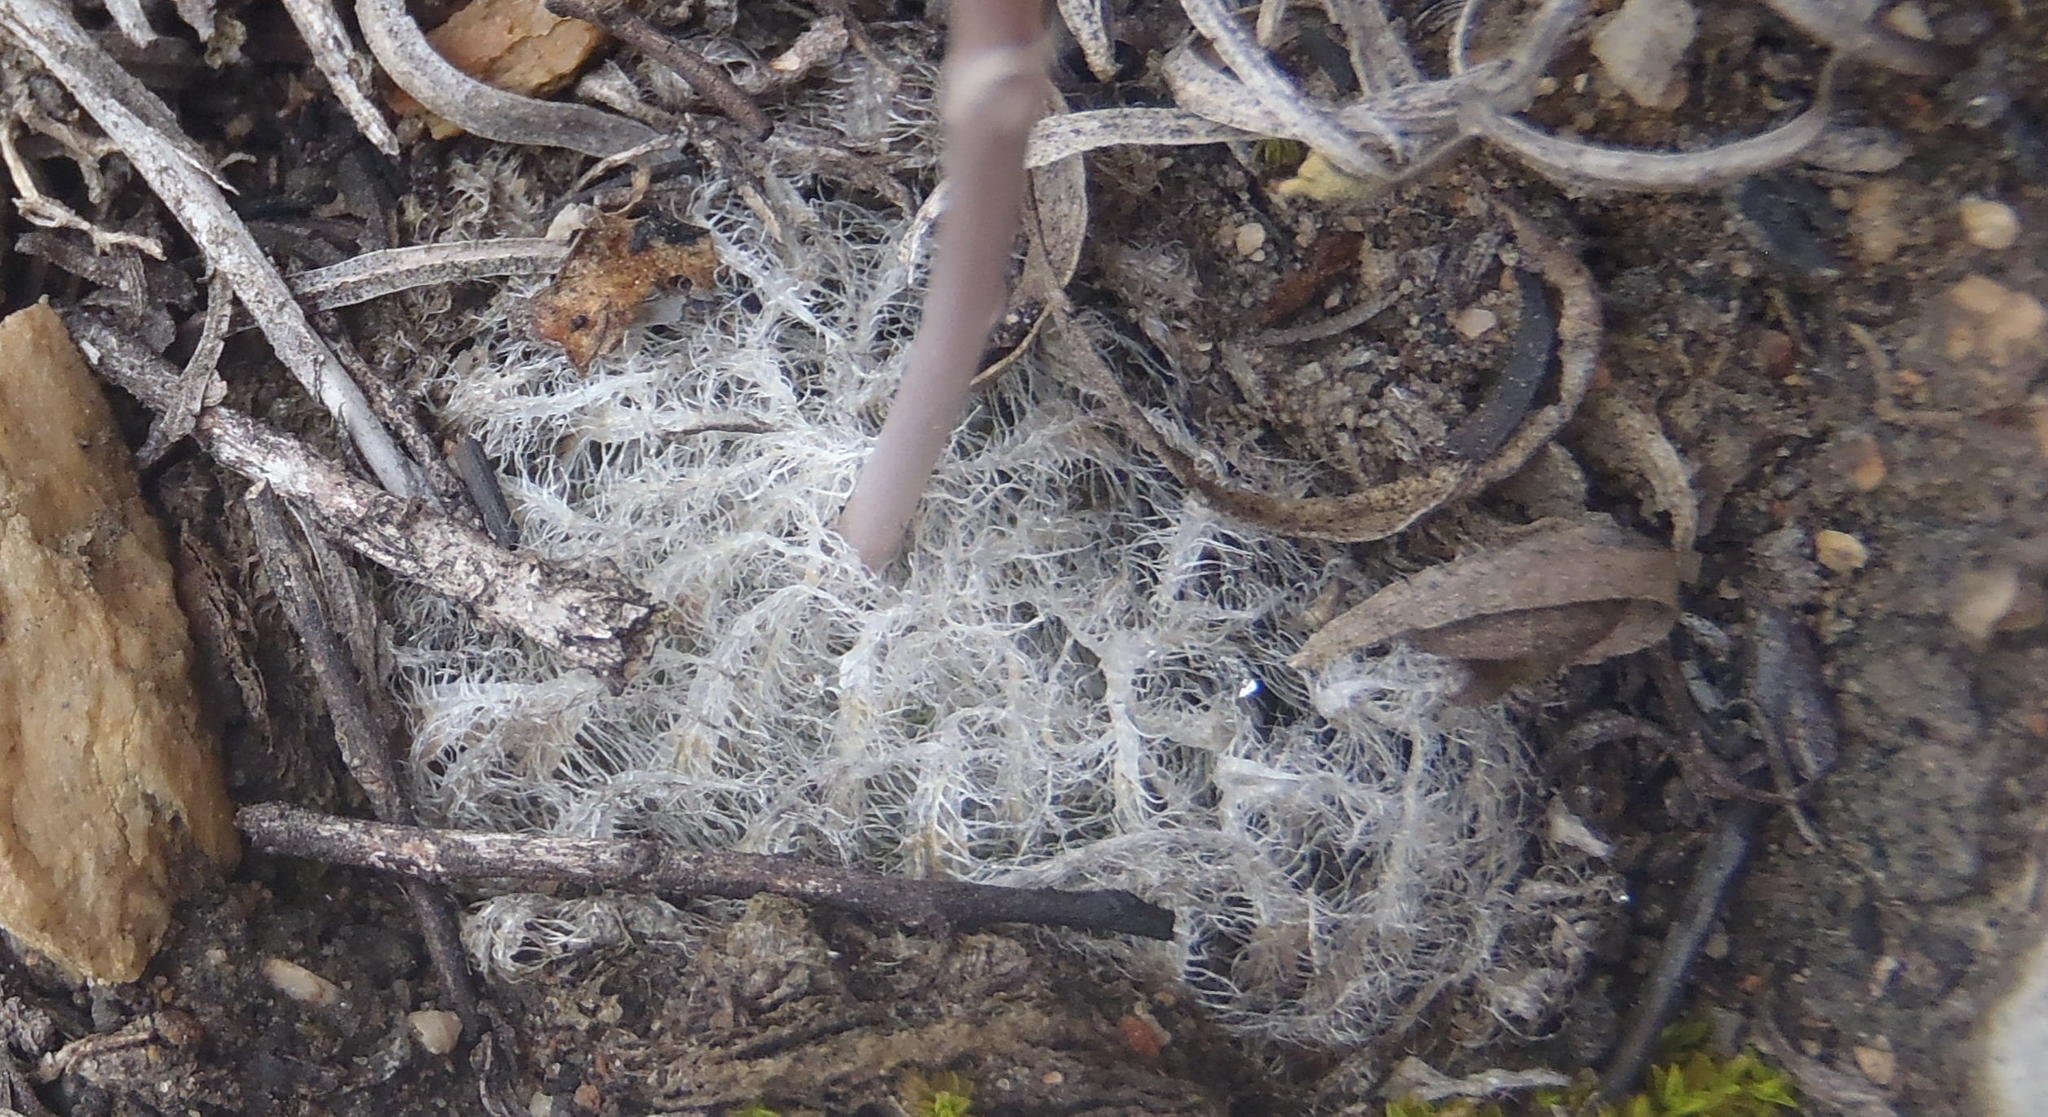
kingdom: Plantae
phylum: Tracheophyta
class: Liliopsida
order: Asparagales
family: Asphodelaceae
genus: Haworthia
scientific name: Haworthia cooperi
